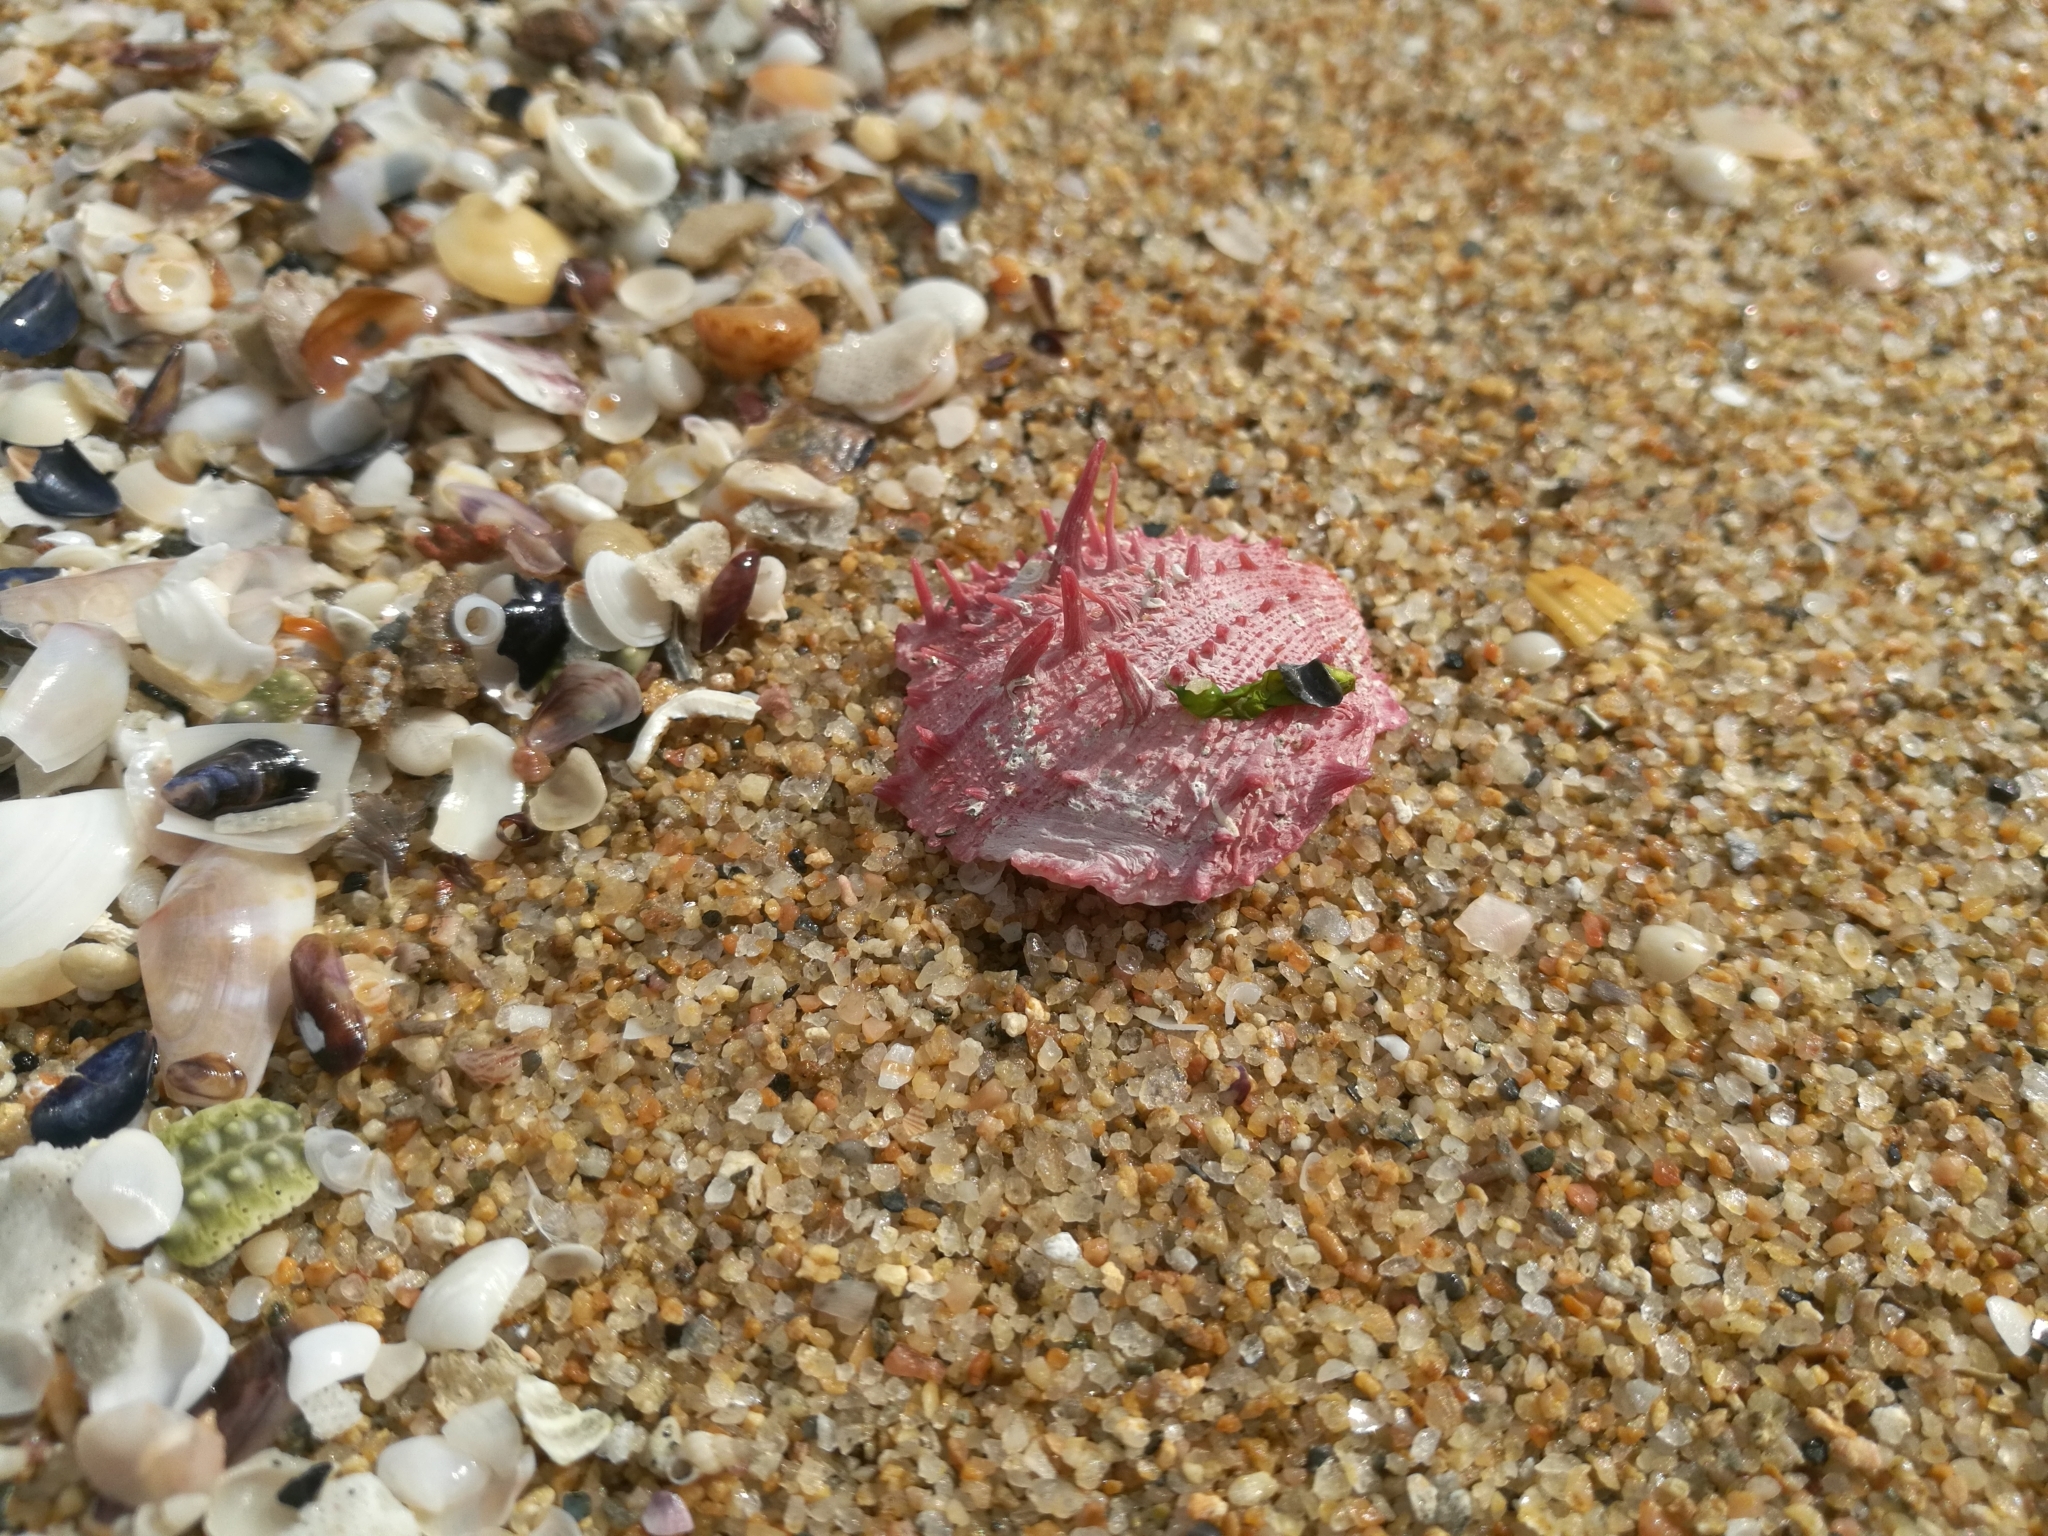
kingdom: Animalia
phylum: Mollusca
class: Bivalvia
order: Pectinida
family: Spondylidae
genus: Spondylus
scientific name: Spondylus gaederopus
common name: European thorny oyster
